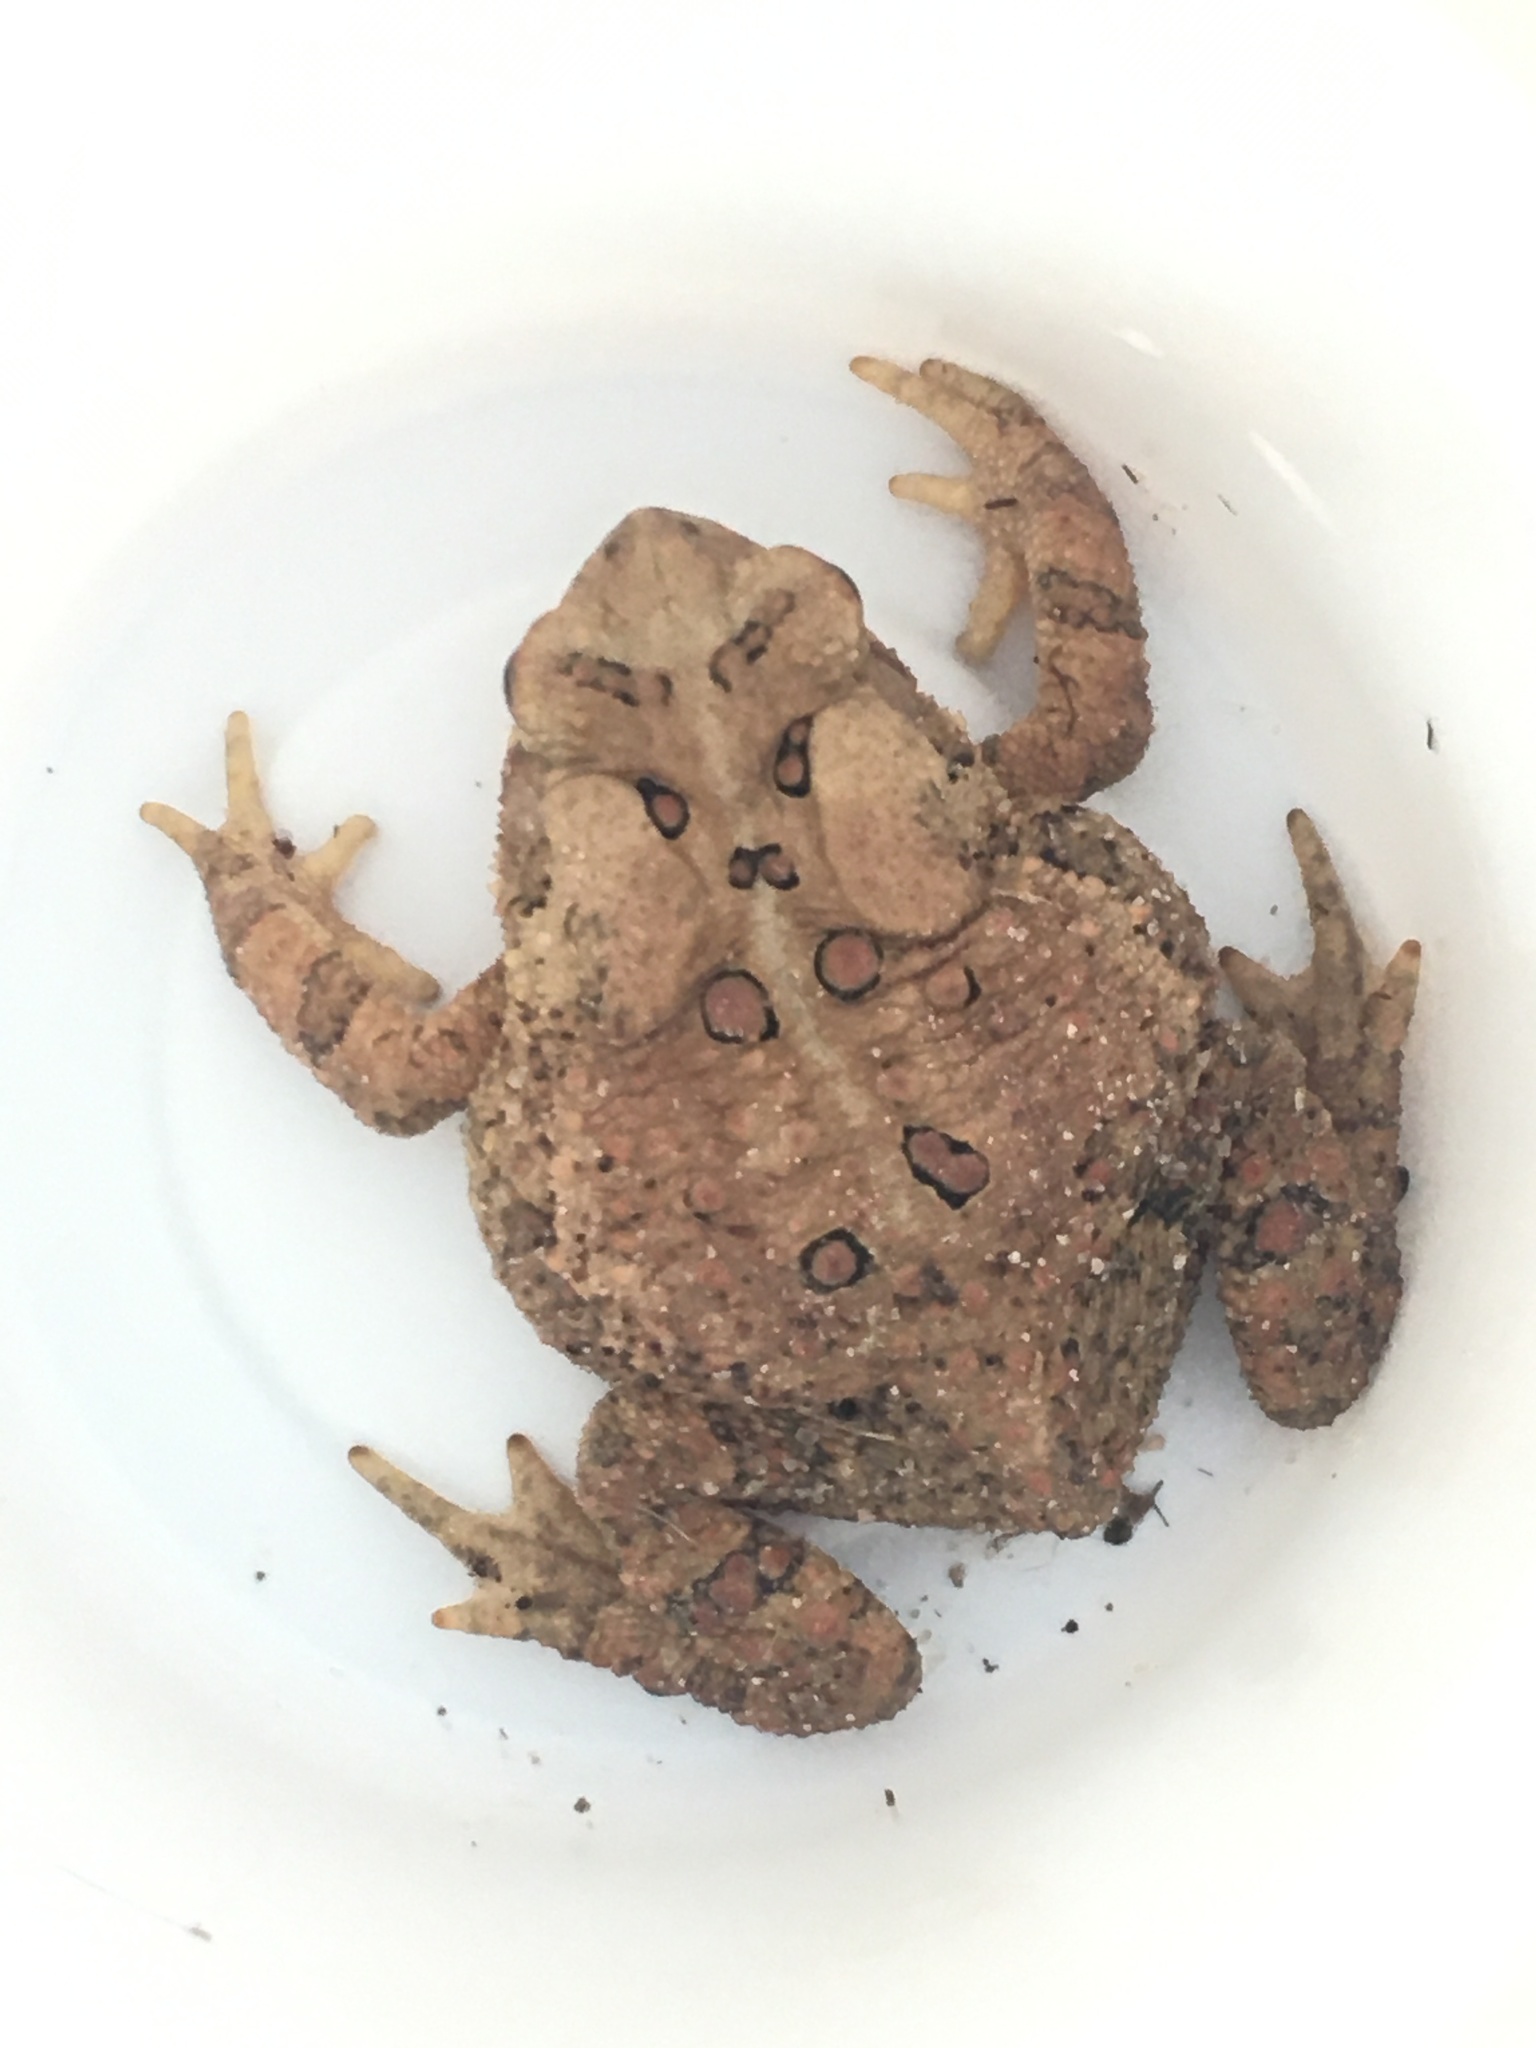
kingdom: Animalia
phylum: Chordata
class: Amphibia
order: Anura
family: Bufonidae
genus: Anaxyrus
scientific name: Anaxyrus americanus
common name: American toad
